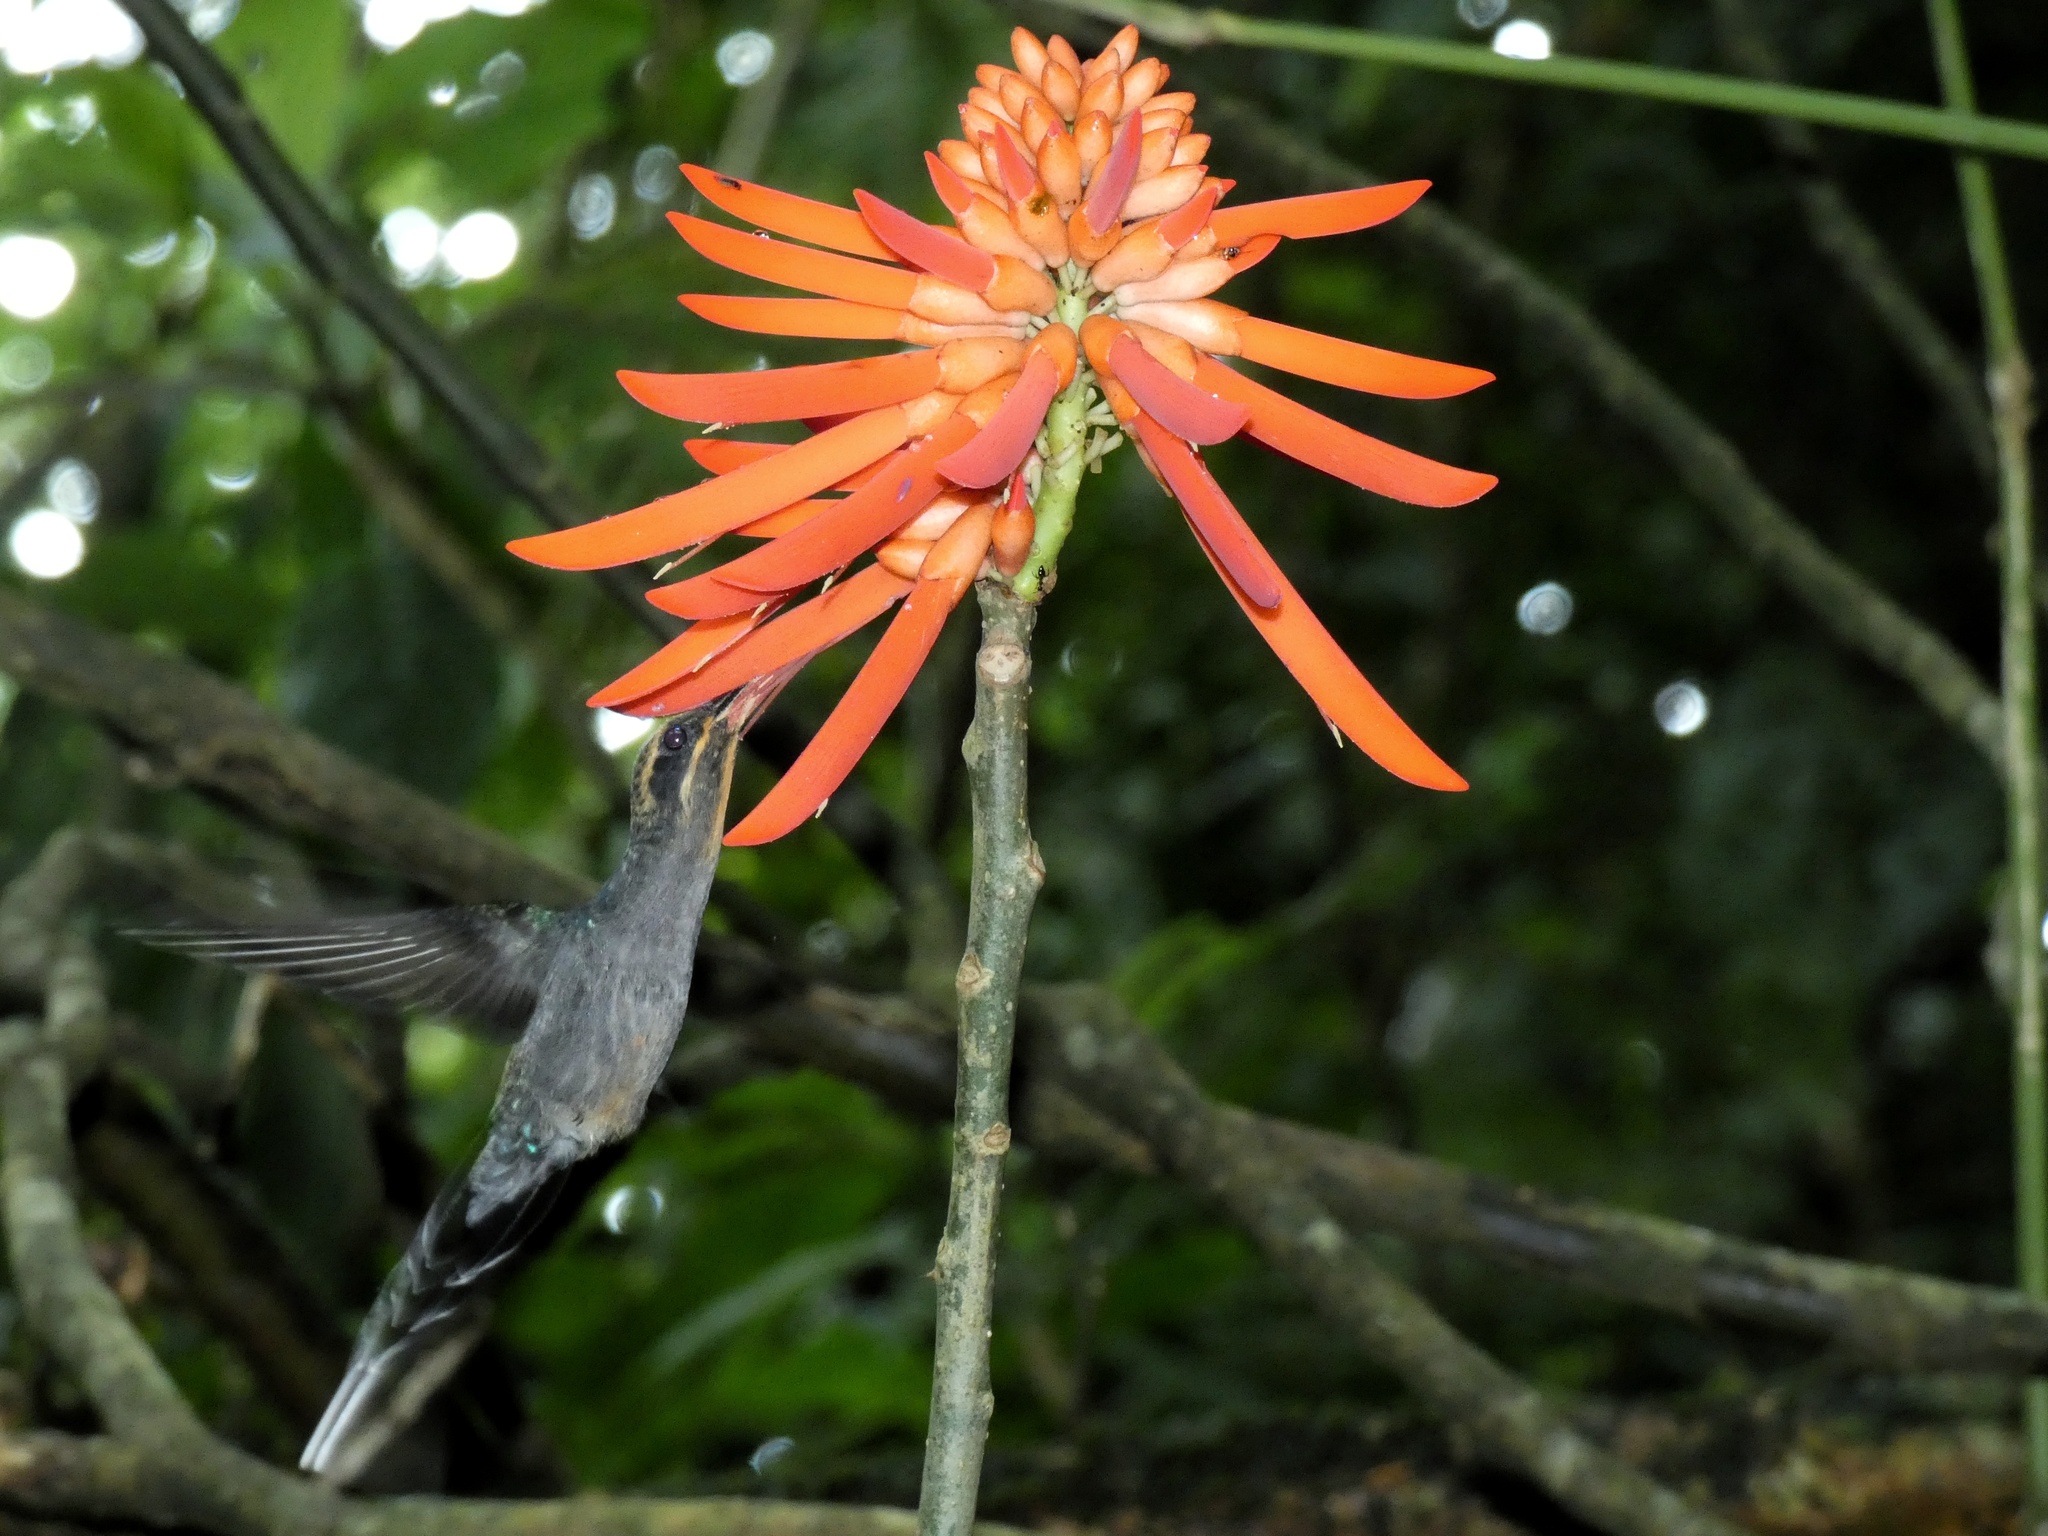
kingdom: Animalia
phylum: Chordata
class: Aves
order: Apodiformes
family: Trochilidae
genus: Phaethornis
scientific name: Phaethornis guy
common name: Green hermit
